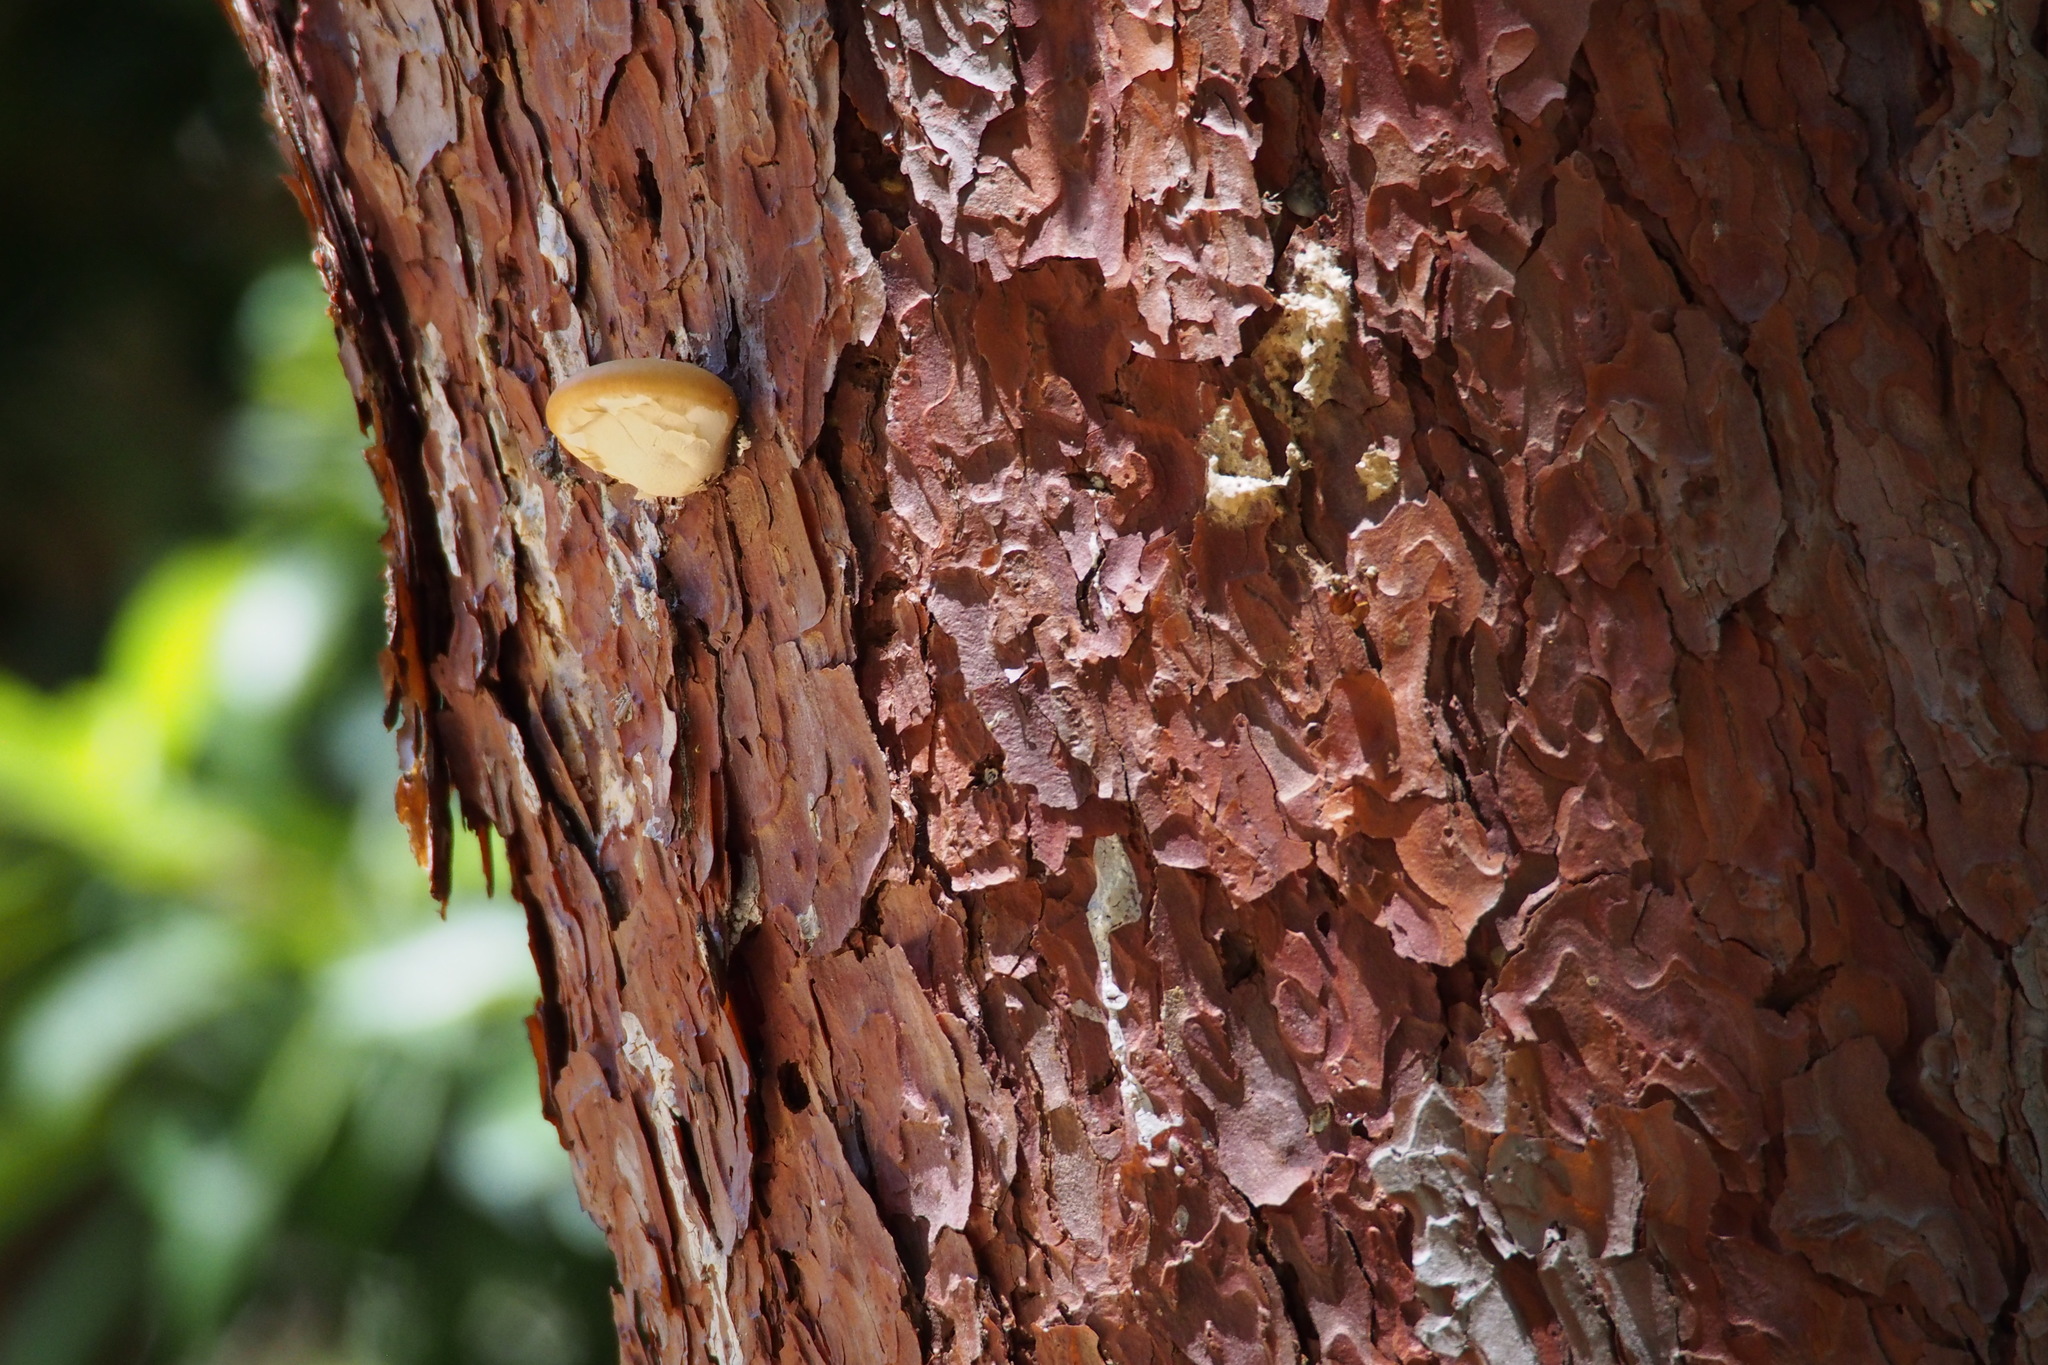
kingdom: Fungi
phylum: Basidiomycota
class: Agaricomycetes
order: Polyporales
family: Polyporaceae
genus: Cryptoporus
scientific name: Cryptoporus volvatus
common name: Veiled polypore
